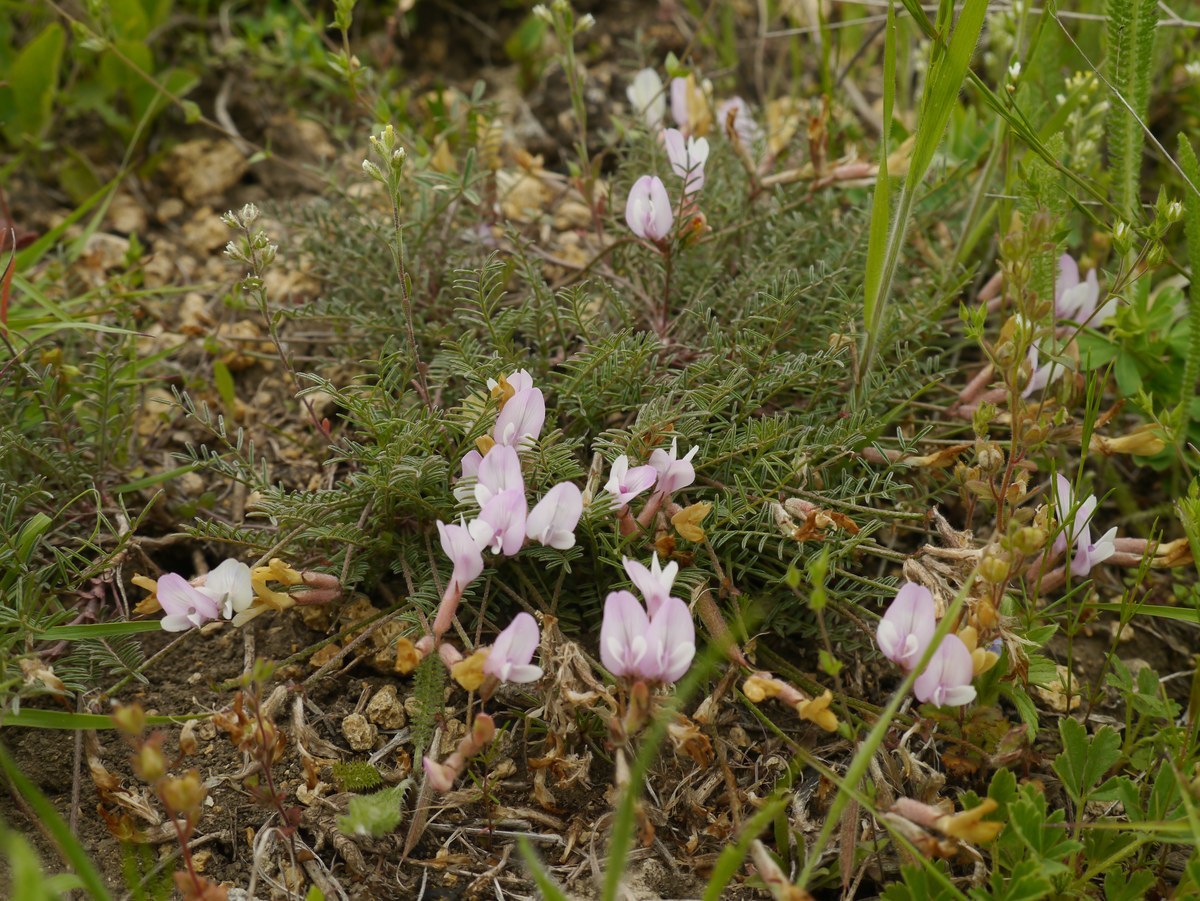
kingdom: Plantae
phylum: Tracheophyta
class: Magnoliopsida
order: Fabales
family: Fabaceae
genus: Astragalus
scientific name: Astragalus corniculatus
